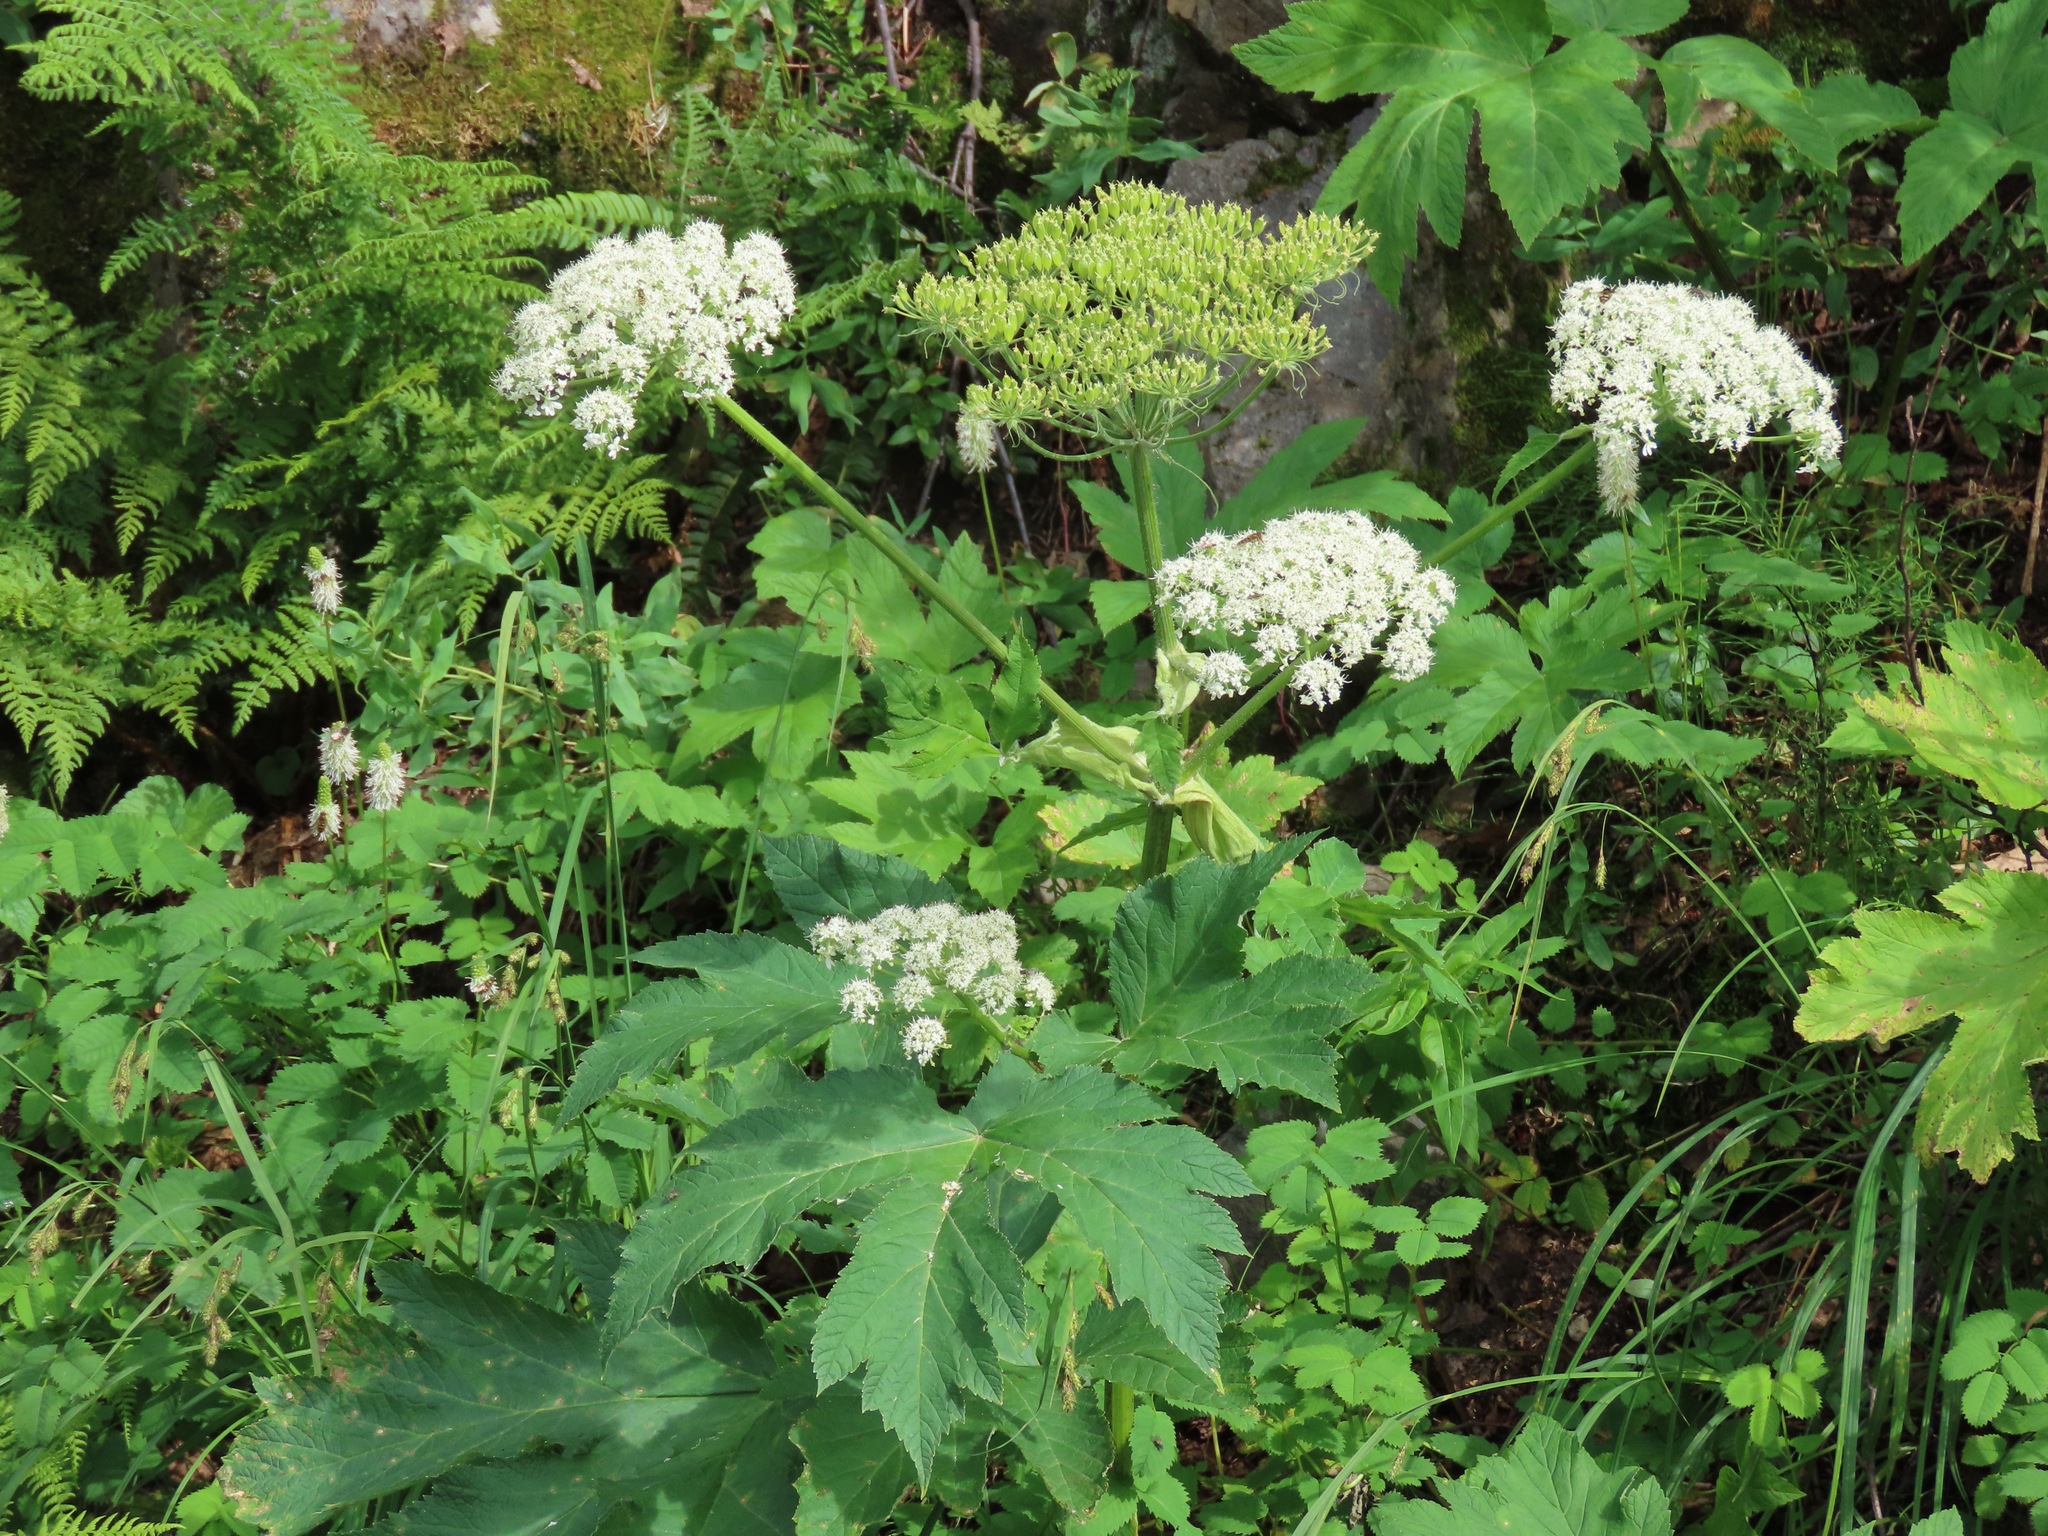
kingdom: Plantae
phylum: Tracheophyta
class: Magnoliopsida
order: Apiales
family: Apiaceae
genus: Heracleum
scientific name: Heracleum maximum
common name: American cow parsnip
